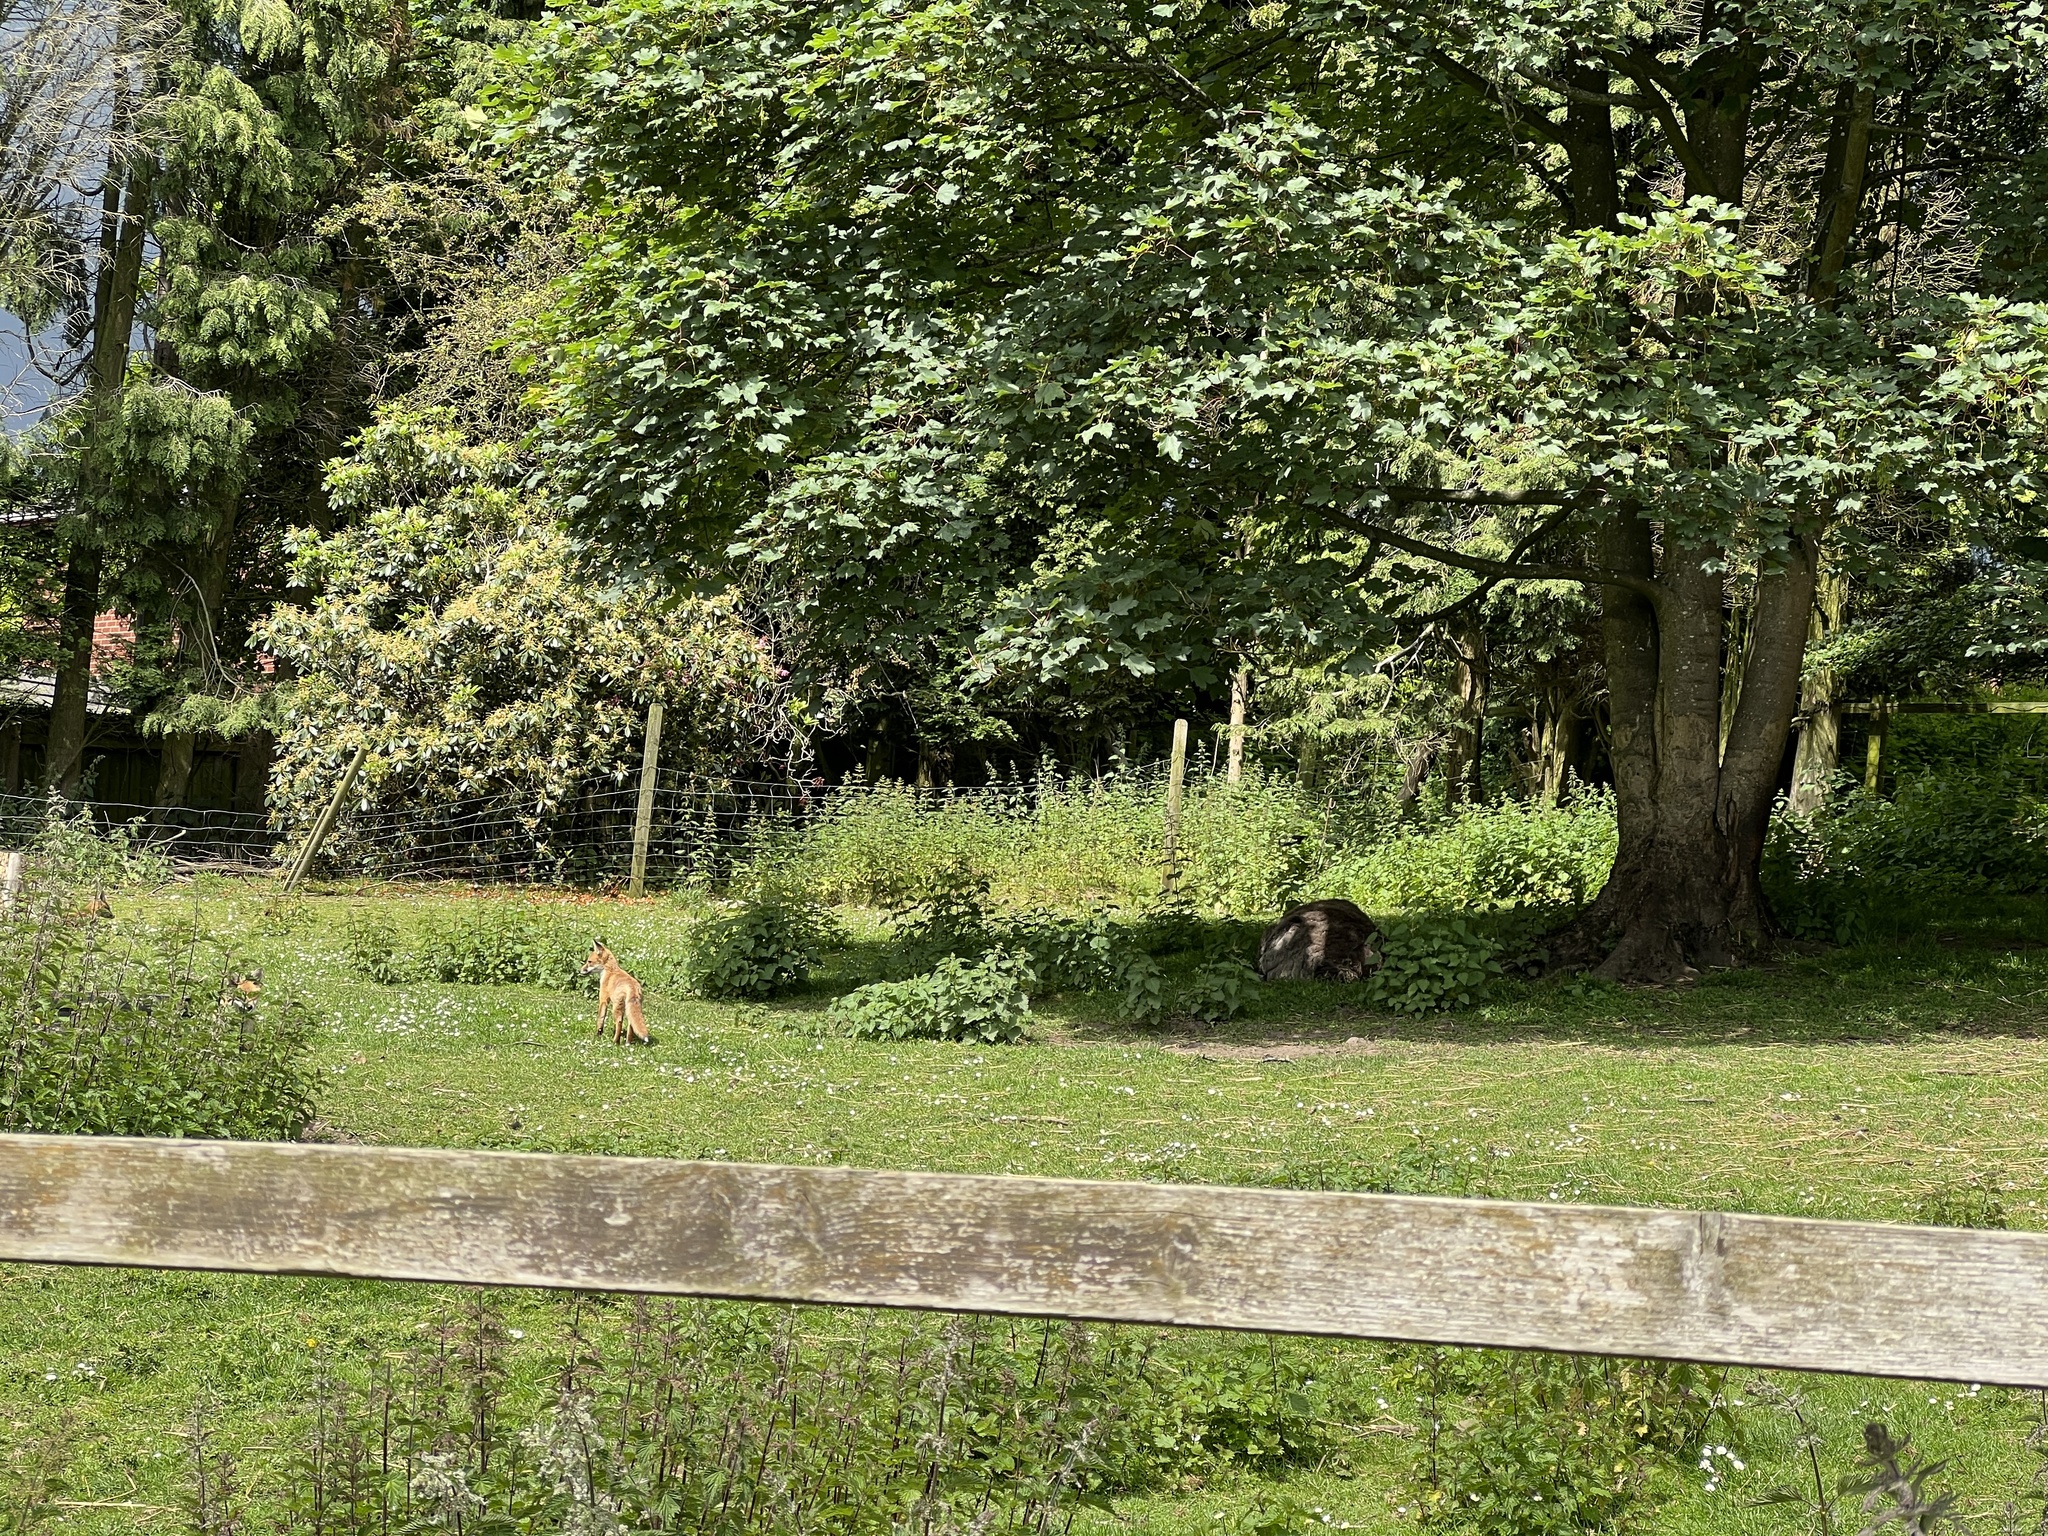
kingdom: Animalia
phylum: Chordata
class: Mammalia
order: Carnivora
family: Canidae
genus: Vulpes
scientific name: Vulpes vulpes
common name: Red fox
